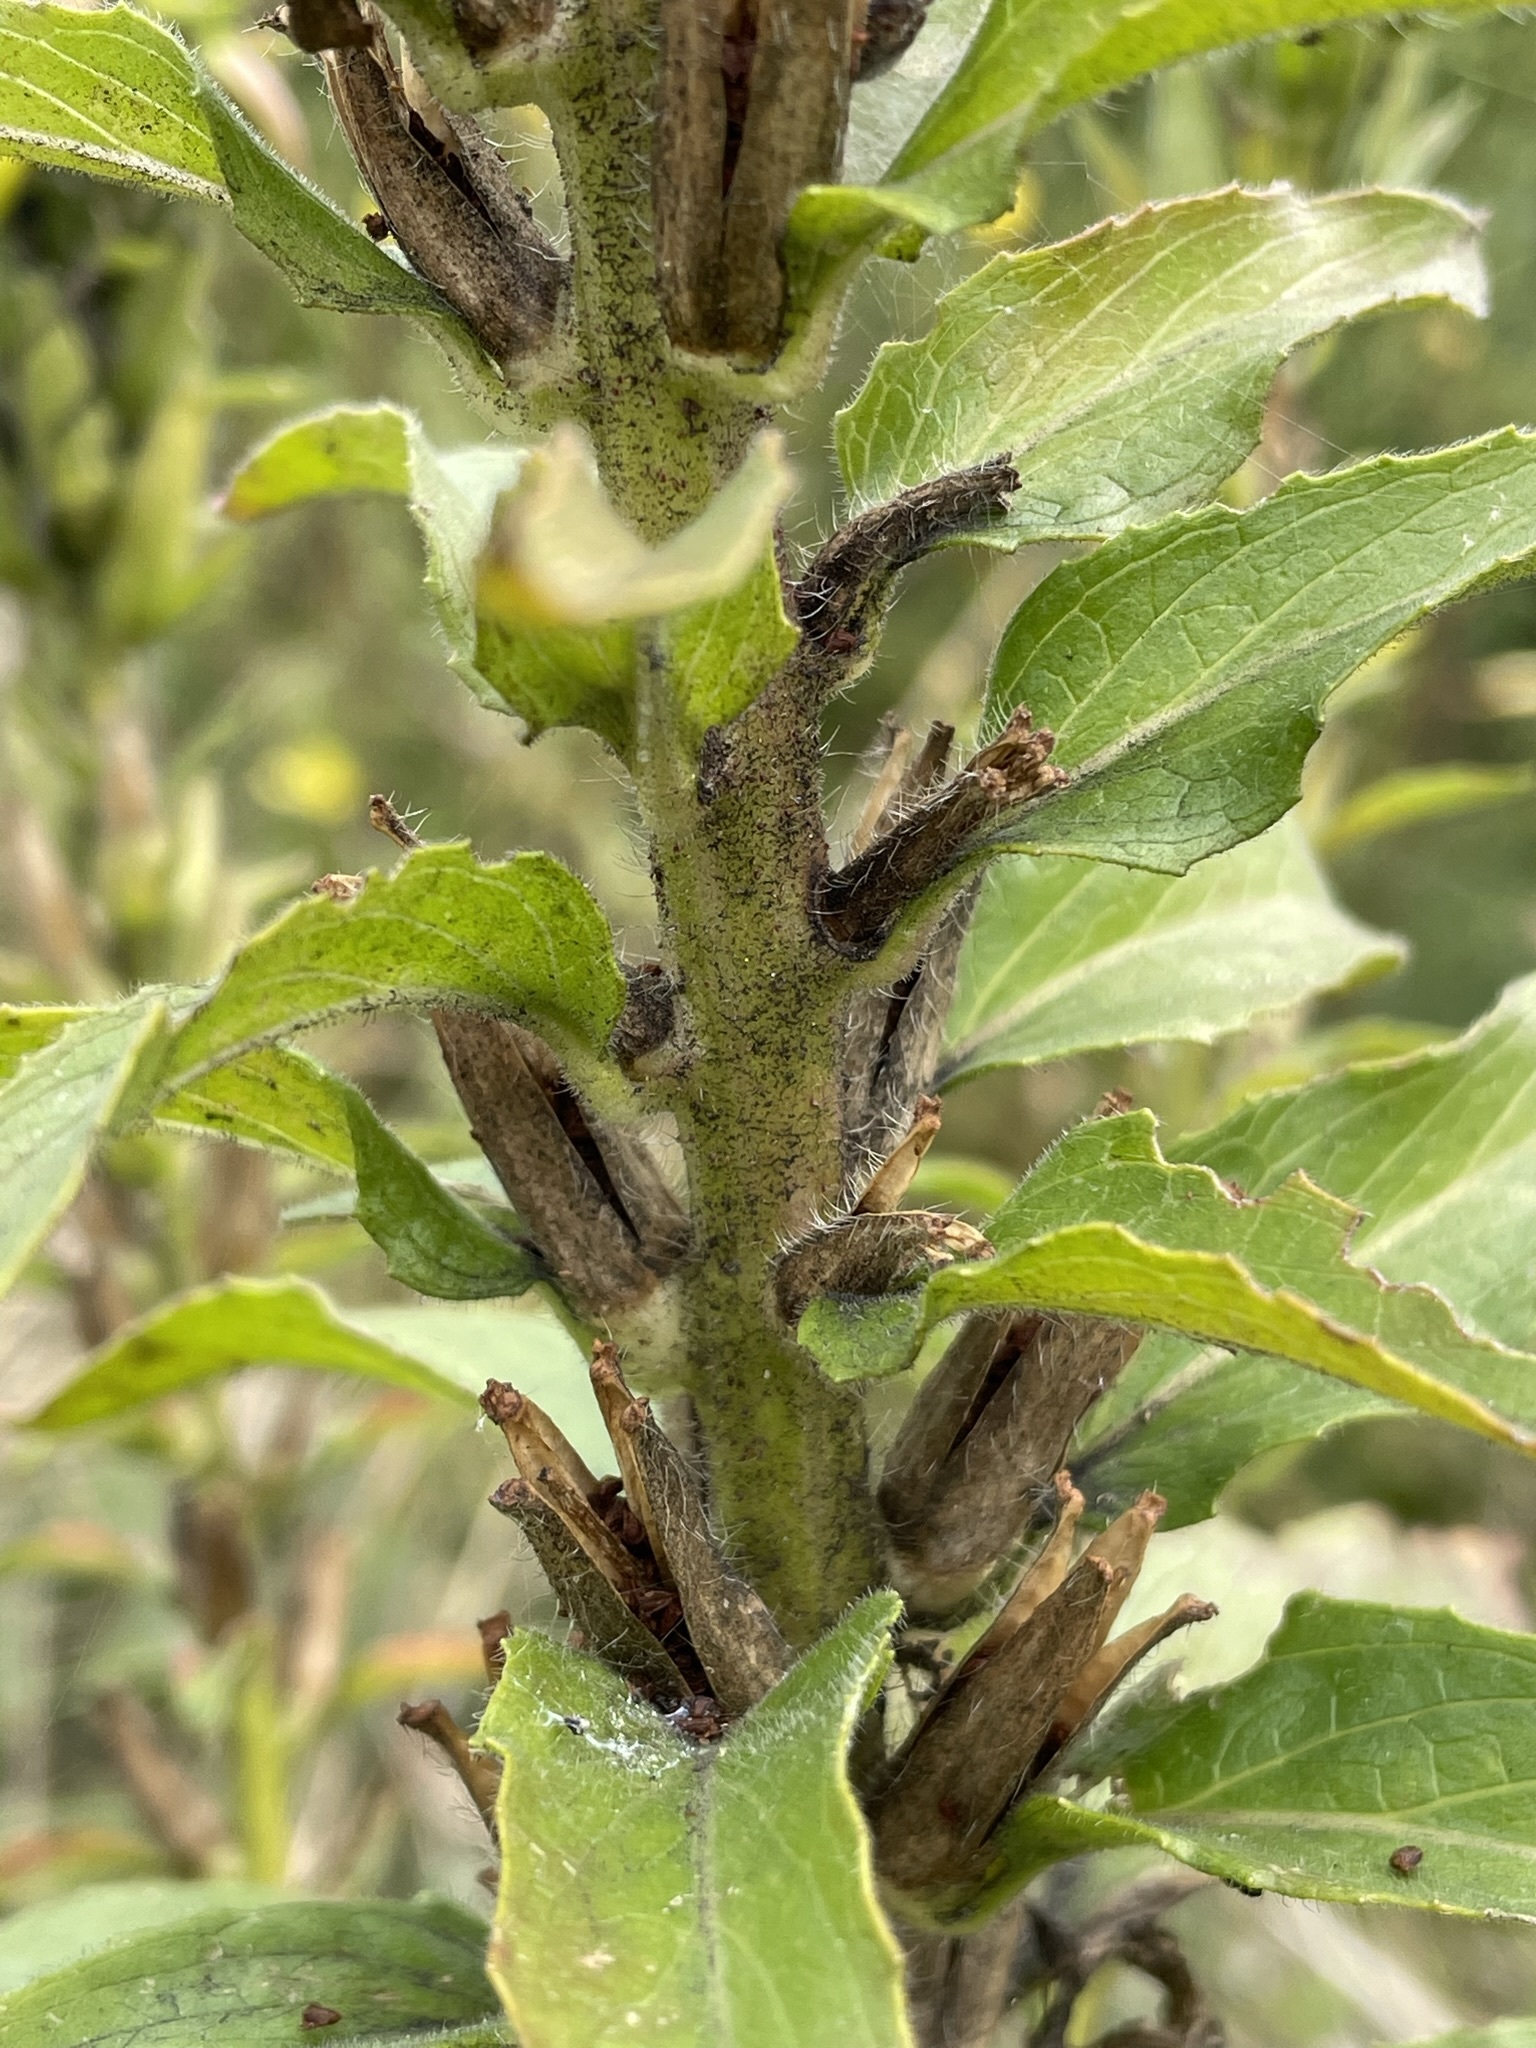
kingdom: Plantae
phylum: Tracheophyta
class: Magnoliopsida
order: Myrtales
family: Onagraceae
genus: Oenothera
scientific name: Oenothera glazioviana
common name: Large-flowered evening-primrose
